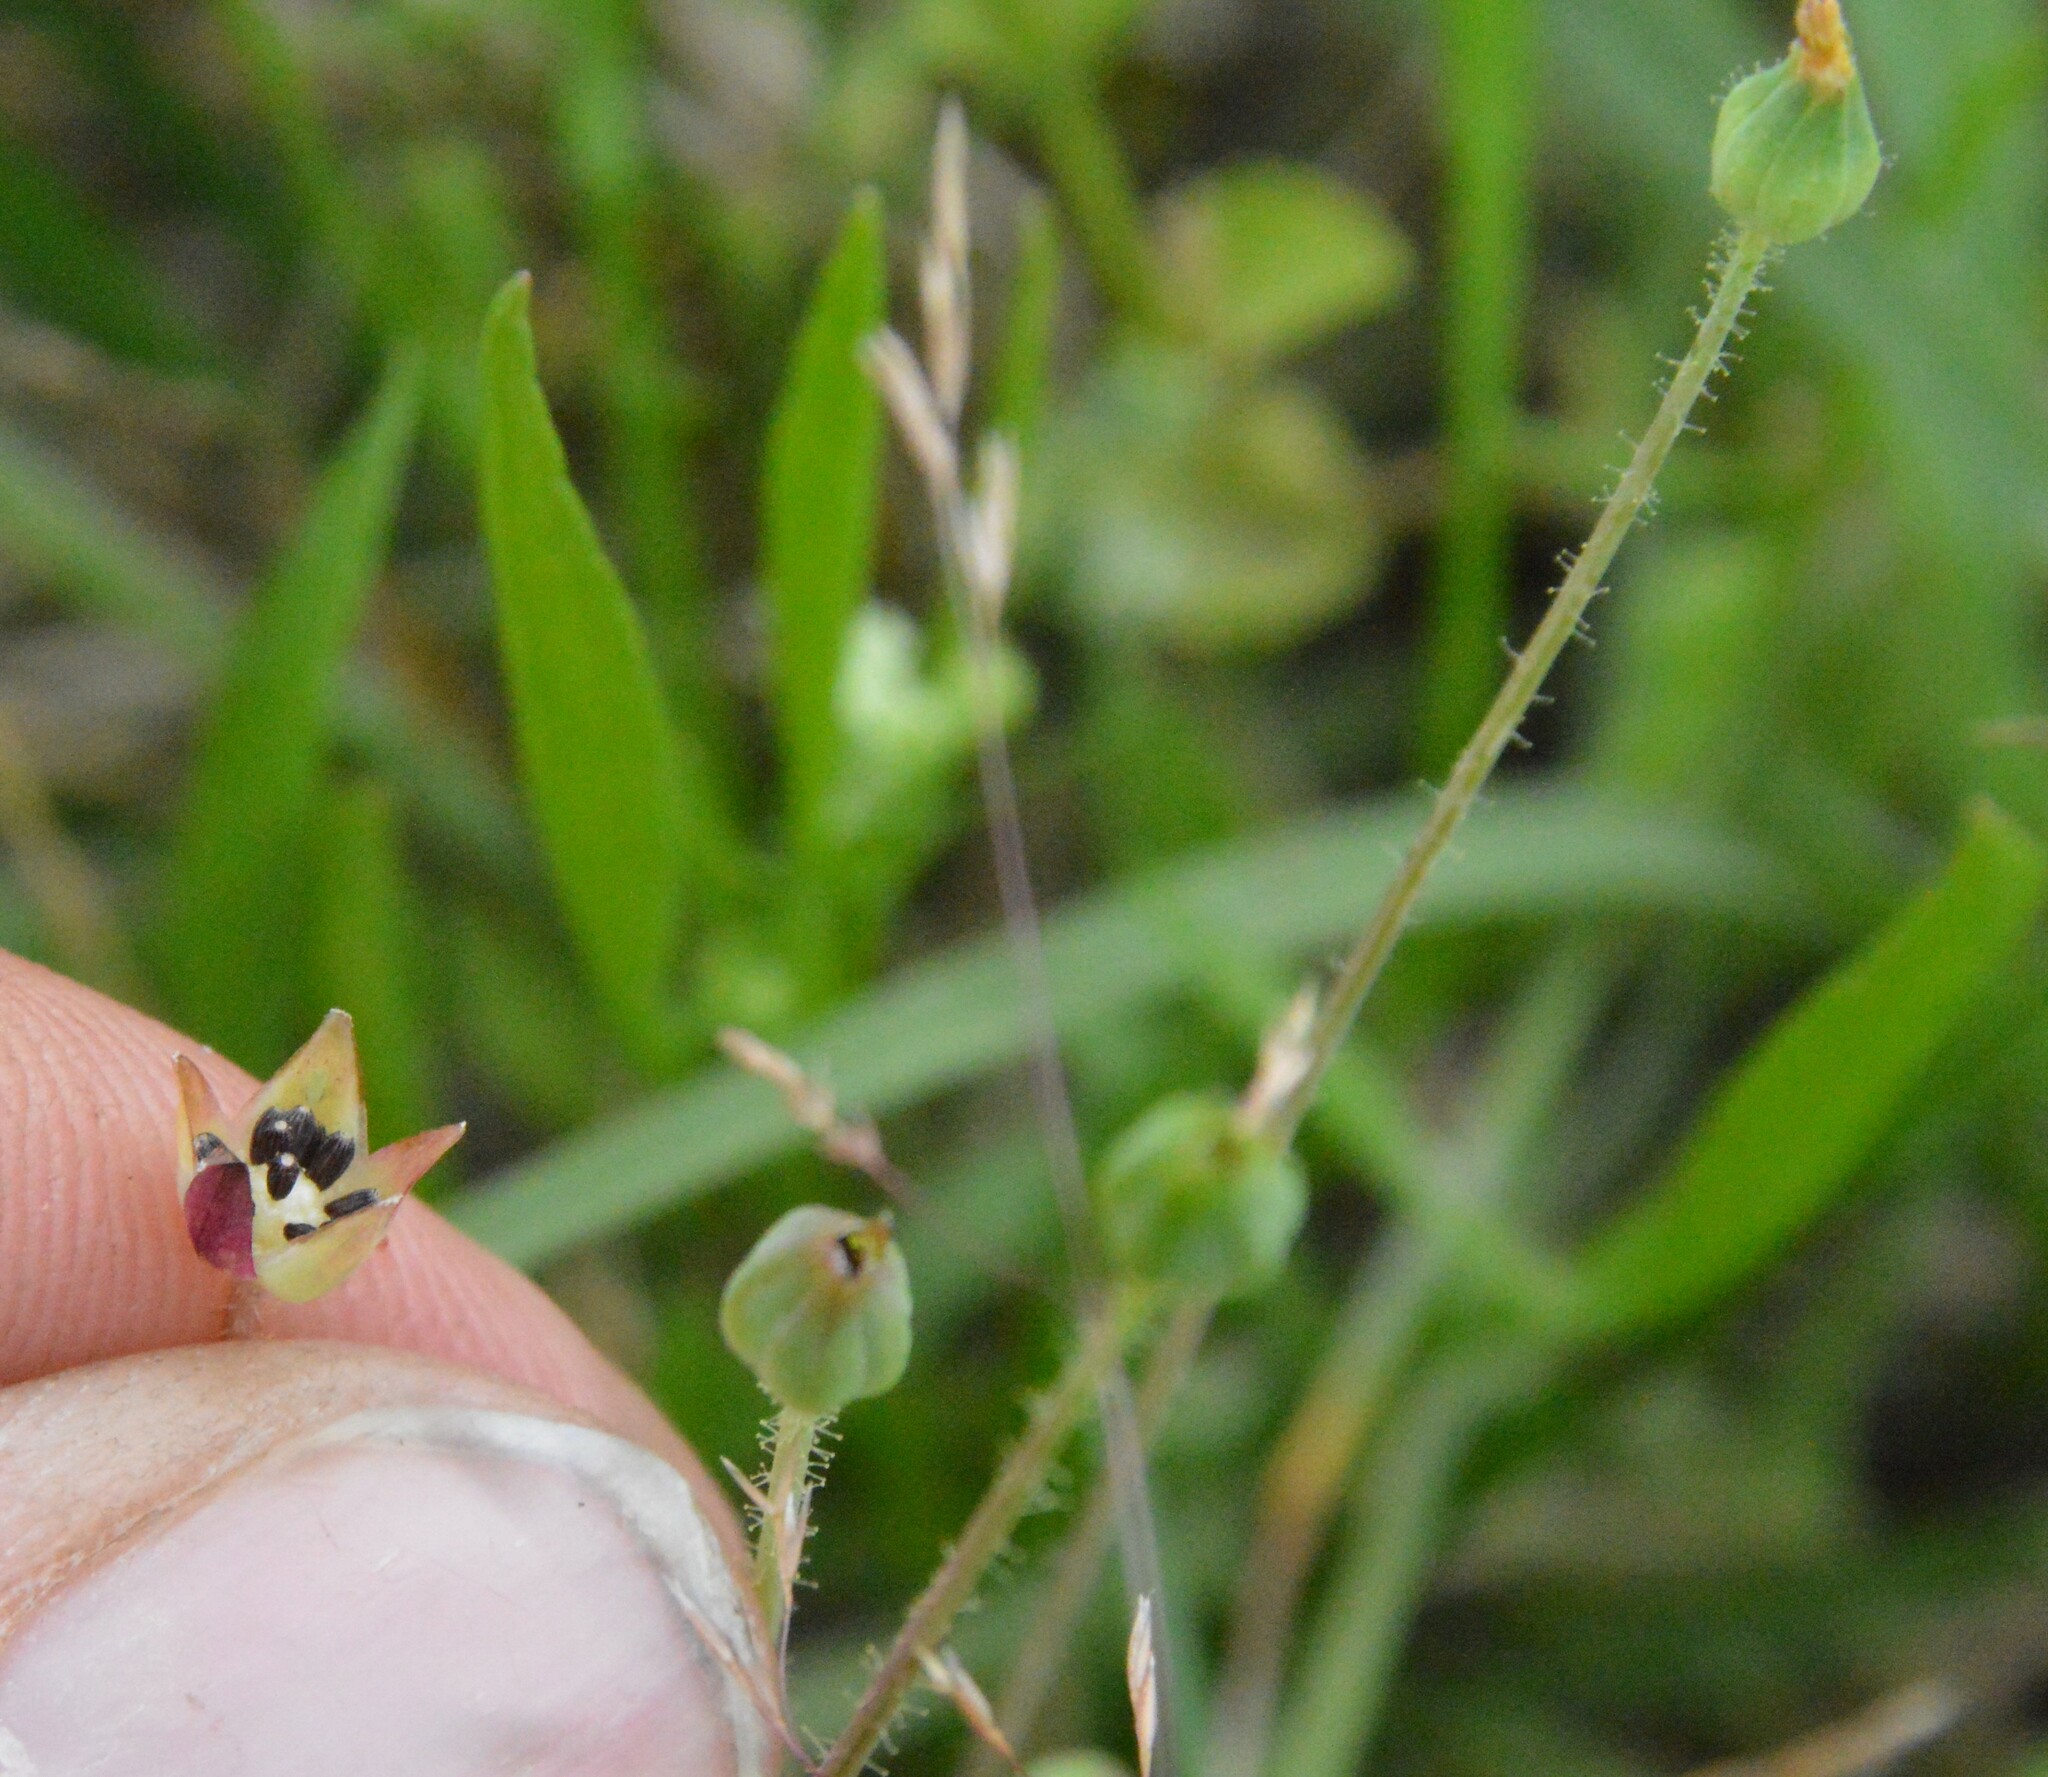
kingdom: Plantae
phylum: Tracheophyta
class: Magnoliopsida
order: Asterales
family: Asteraceae
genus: Krigia
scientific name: Krigia cespitosa
